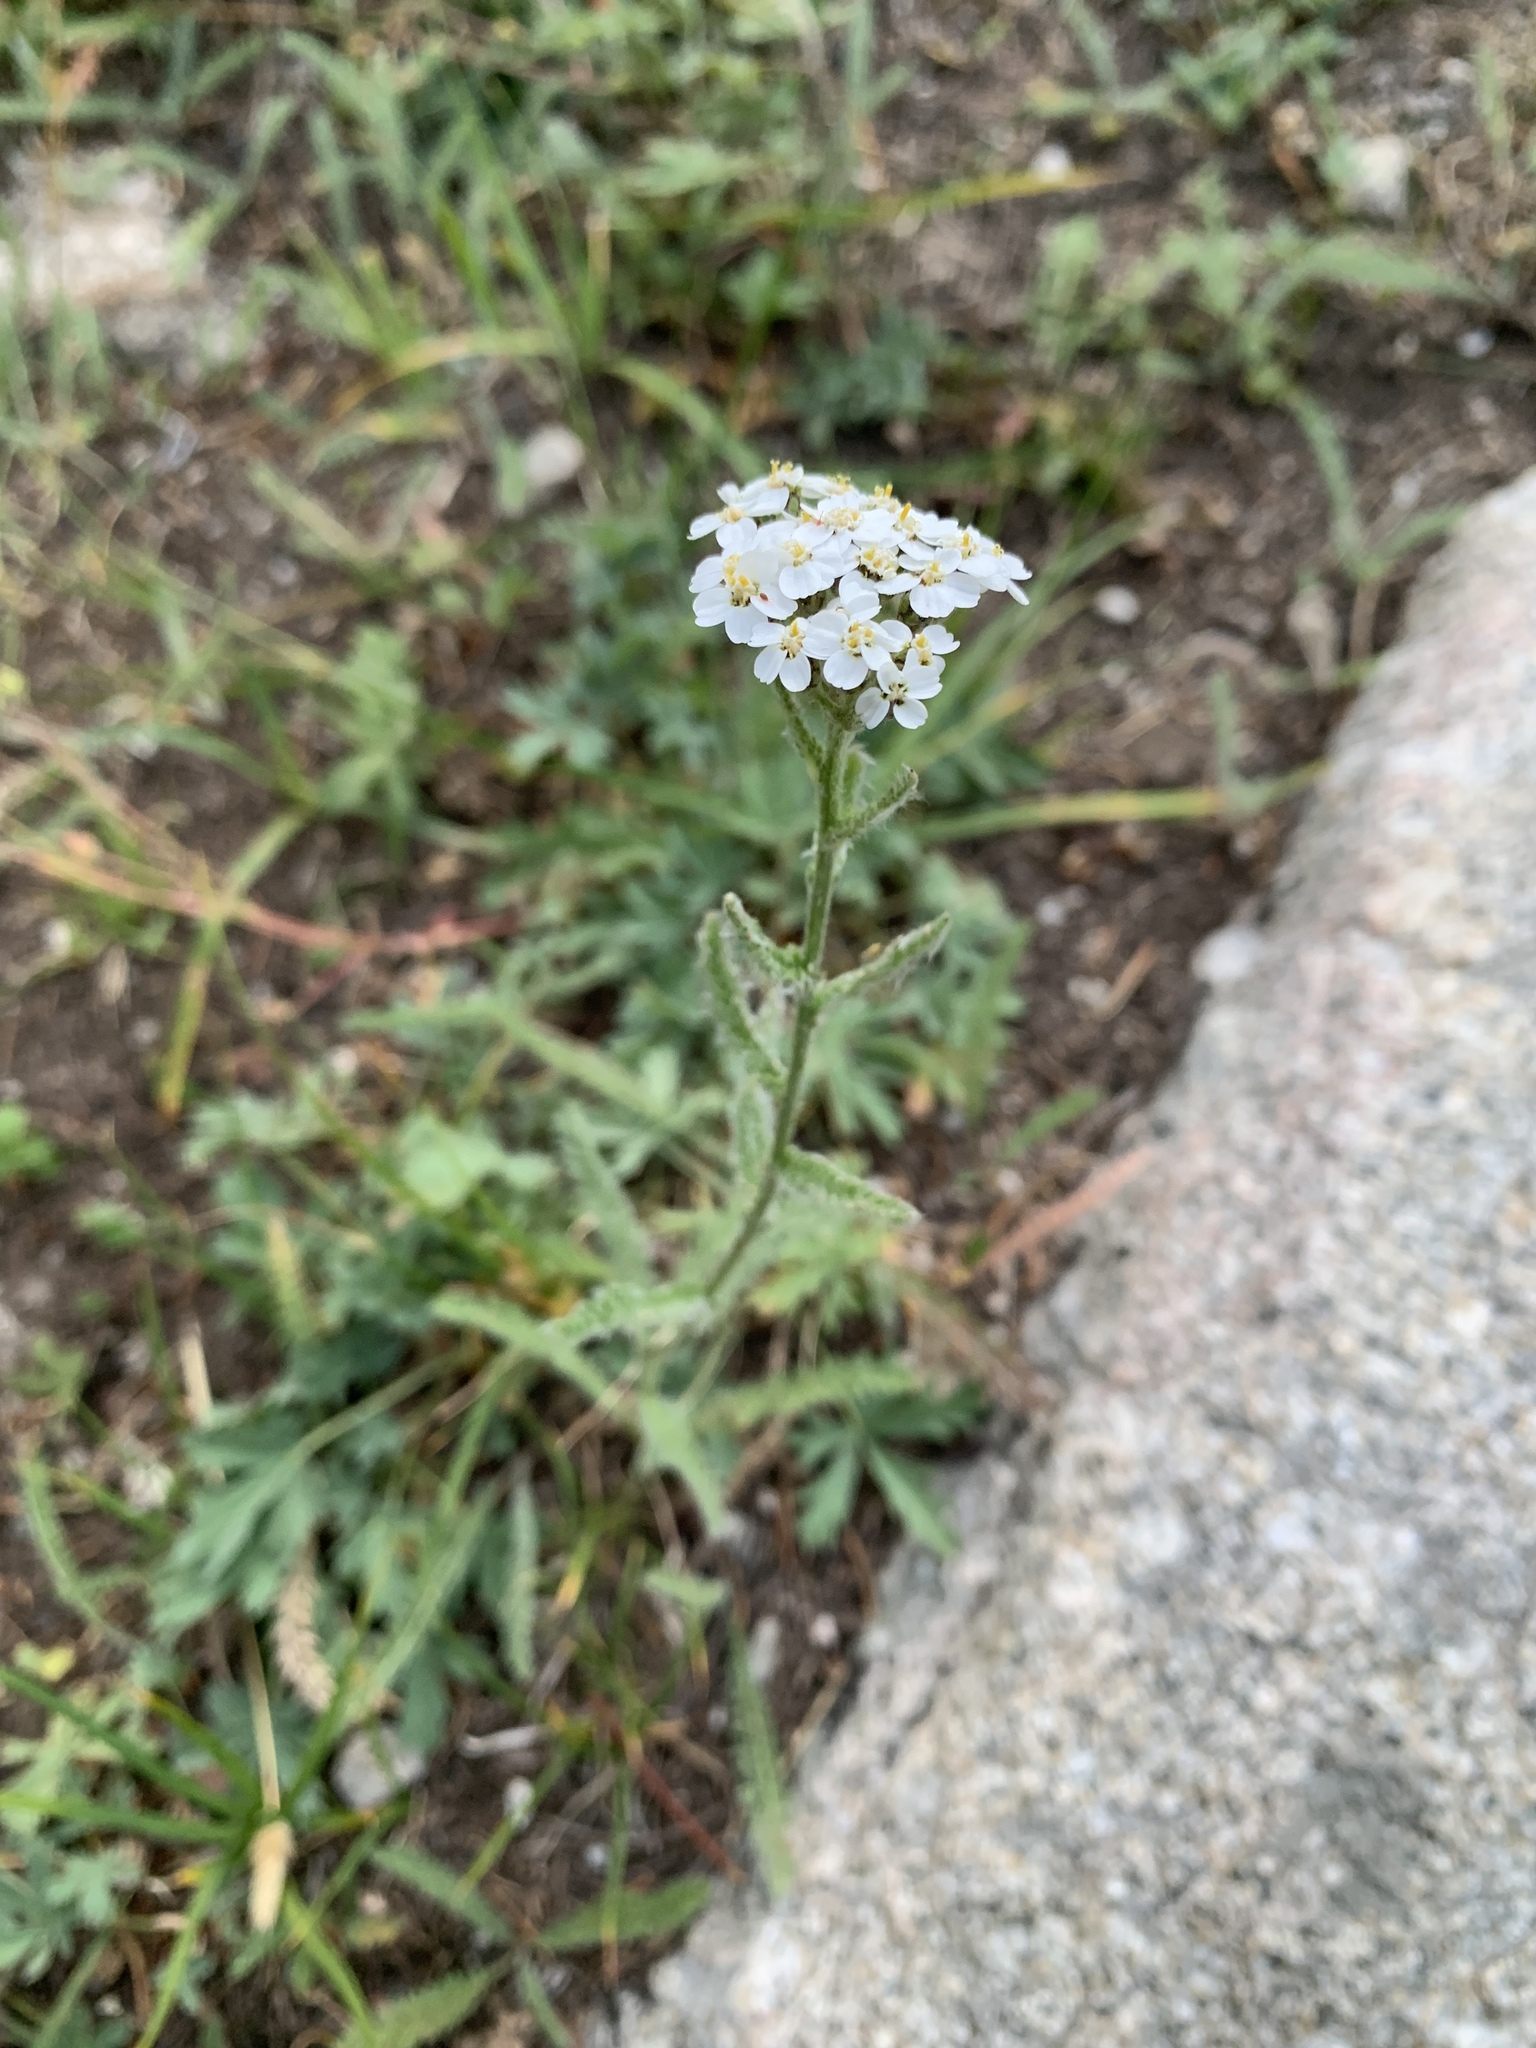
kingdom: Plantae
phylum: Tracheophyta
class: Magnoliopsida
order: Asterales
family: Asteraceae
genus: Achillea
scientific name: Achillea millefolium
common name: Yarrow
